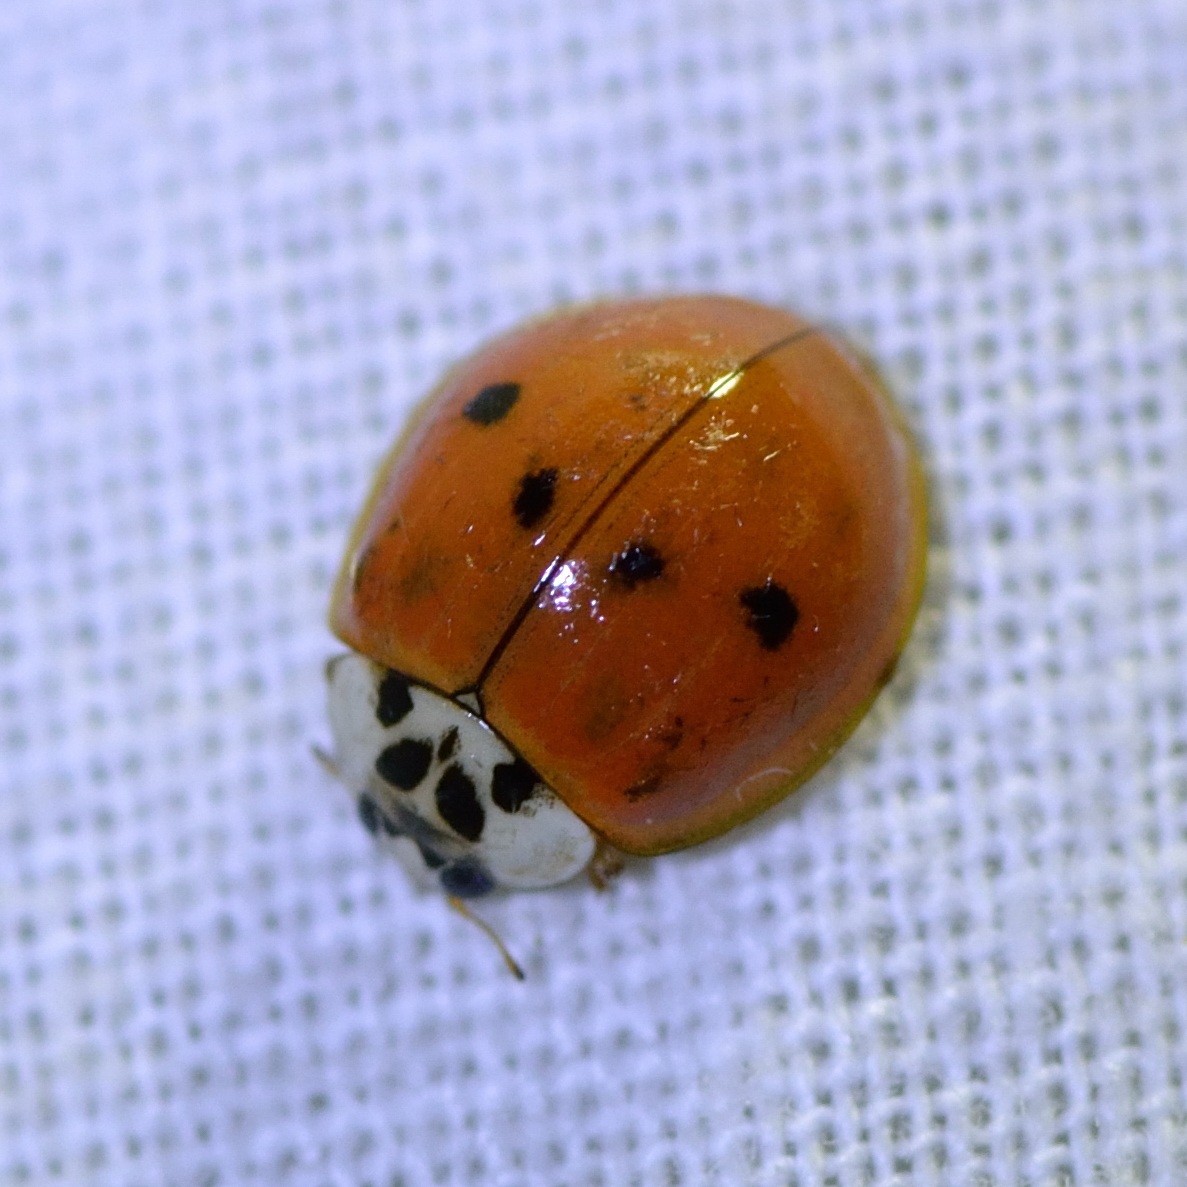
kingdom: Animalia
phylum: Arthropoda
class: Insecta
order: Coleoptera
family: Coccinellidae
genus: Harmonia
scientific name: Harmonia axyridis
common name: Harlequin ladybird
